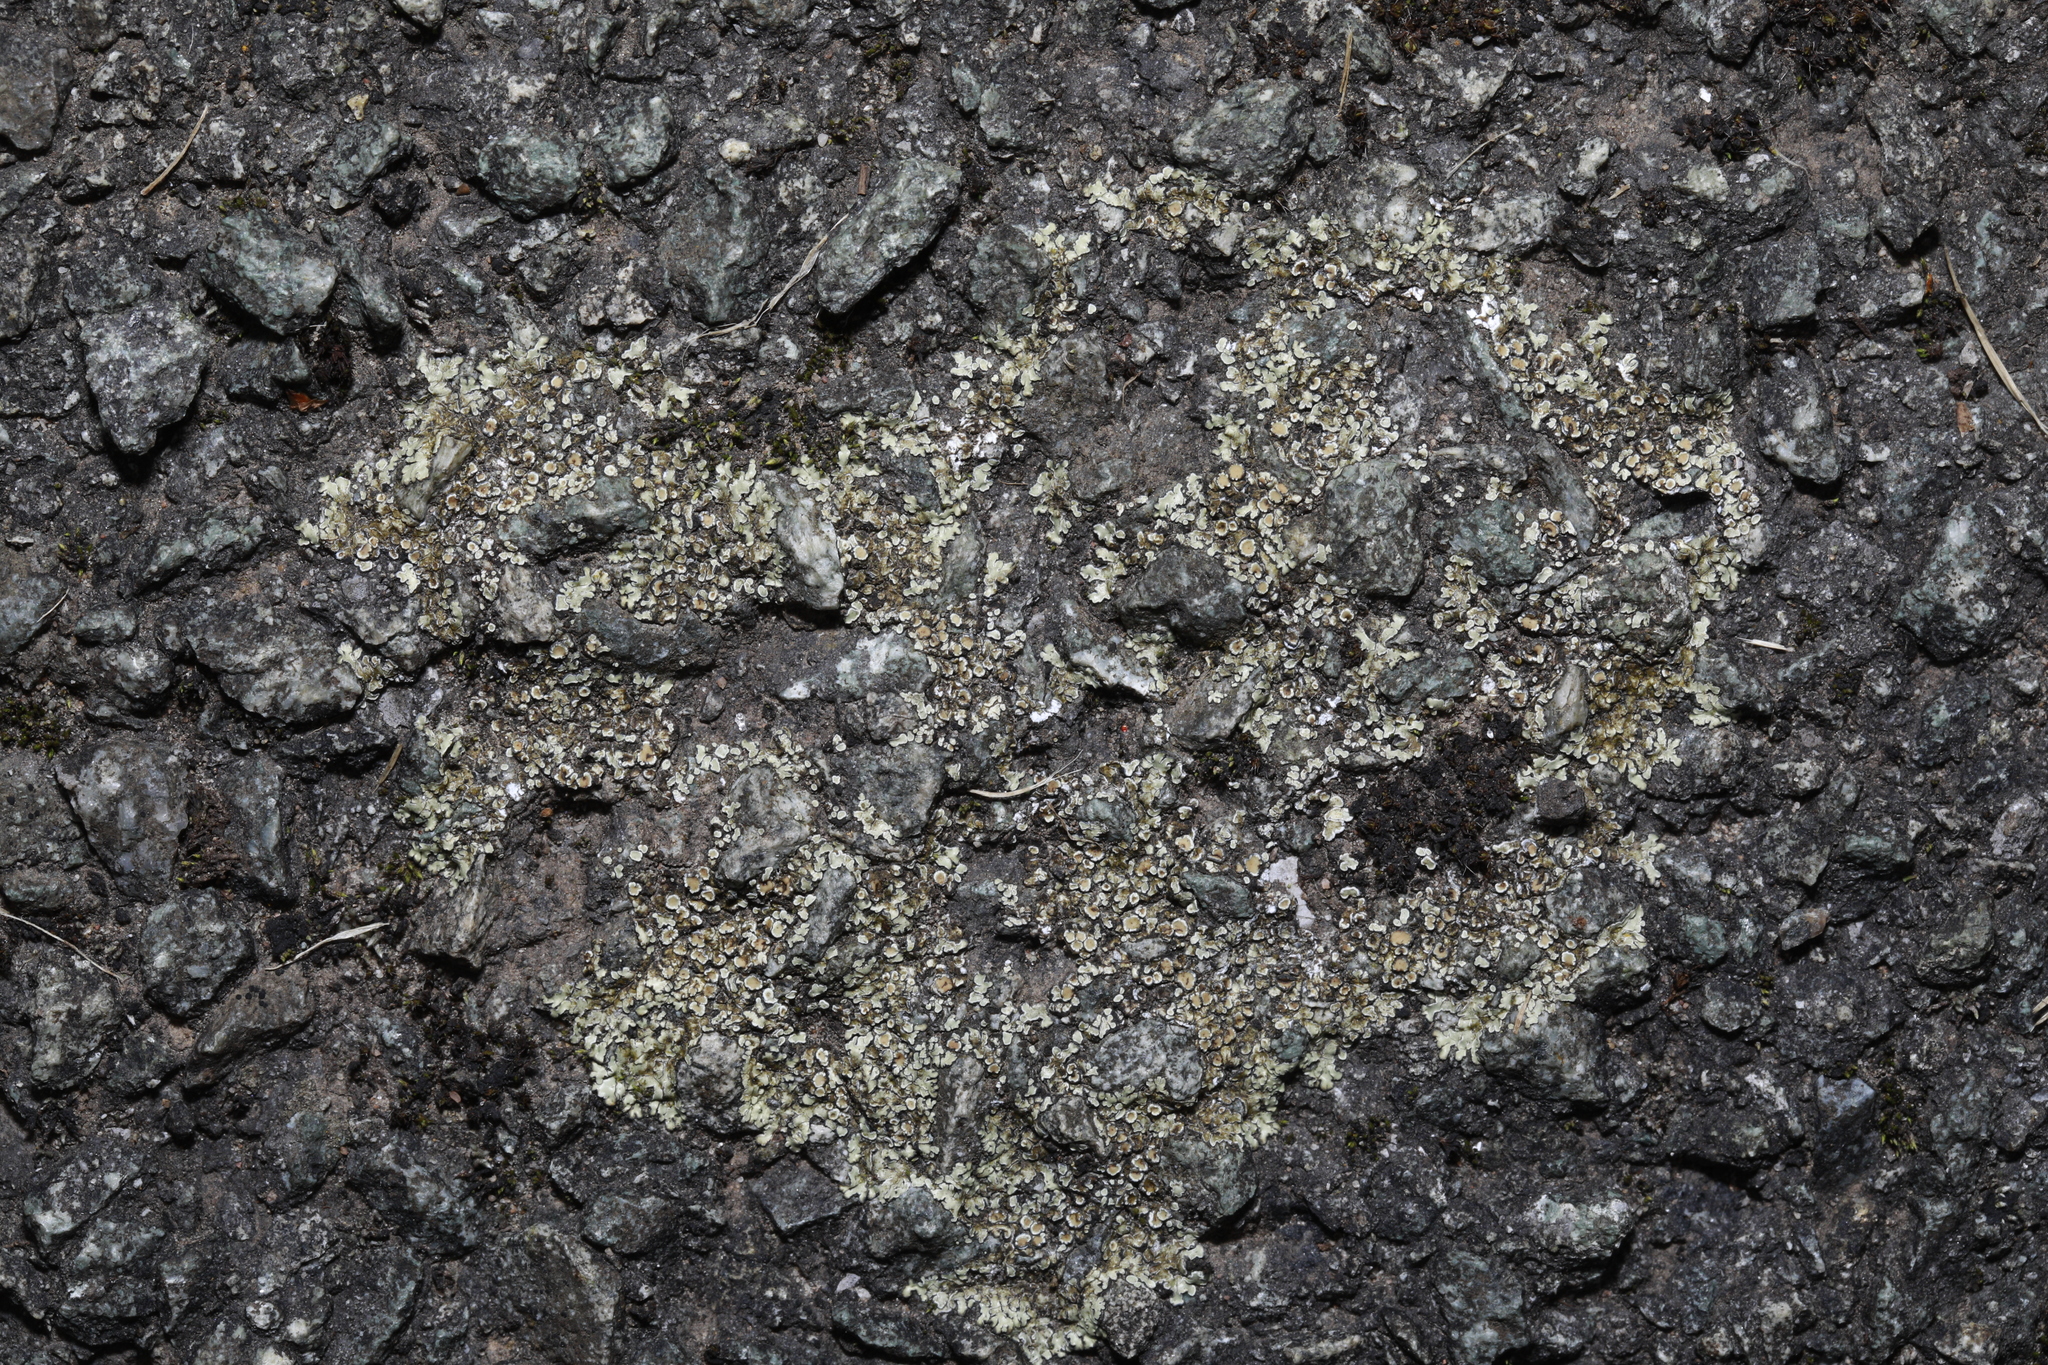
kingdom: Fungi
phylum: Ascomycota
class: Lecanoromycetes
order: Lecanorales
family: Lecanoraceae
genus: Protoparmeliopsis
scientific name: Protoparmeliopsis muralis
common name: Stonewall rim lichen
